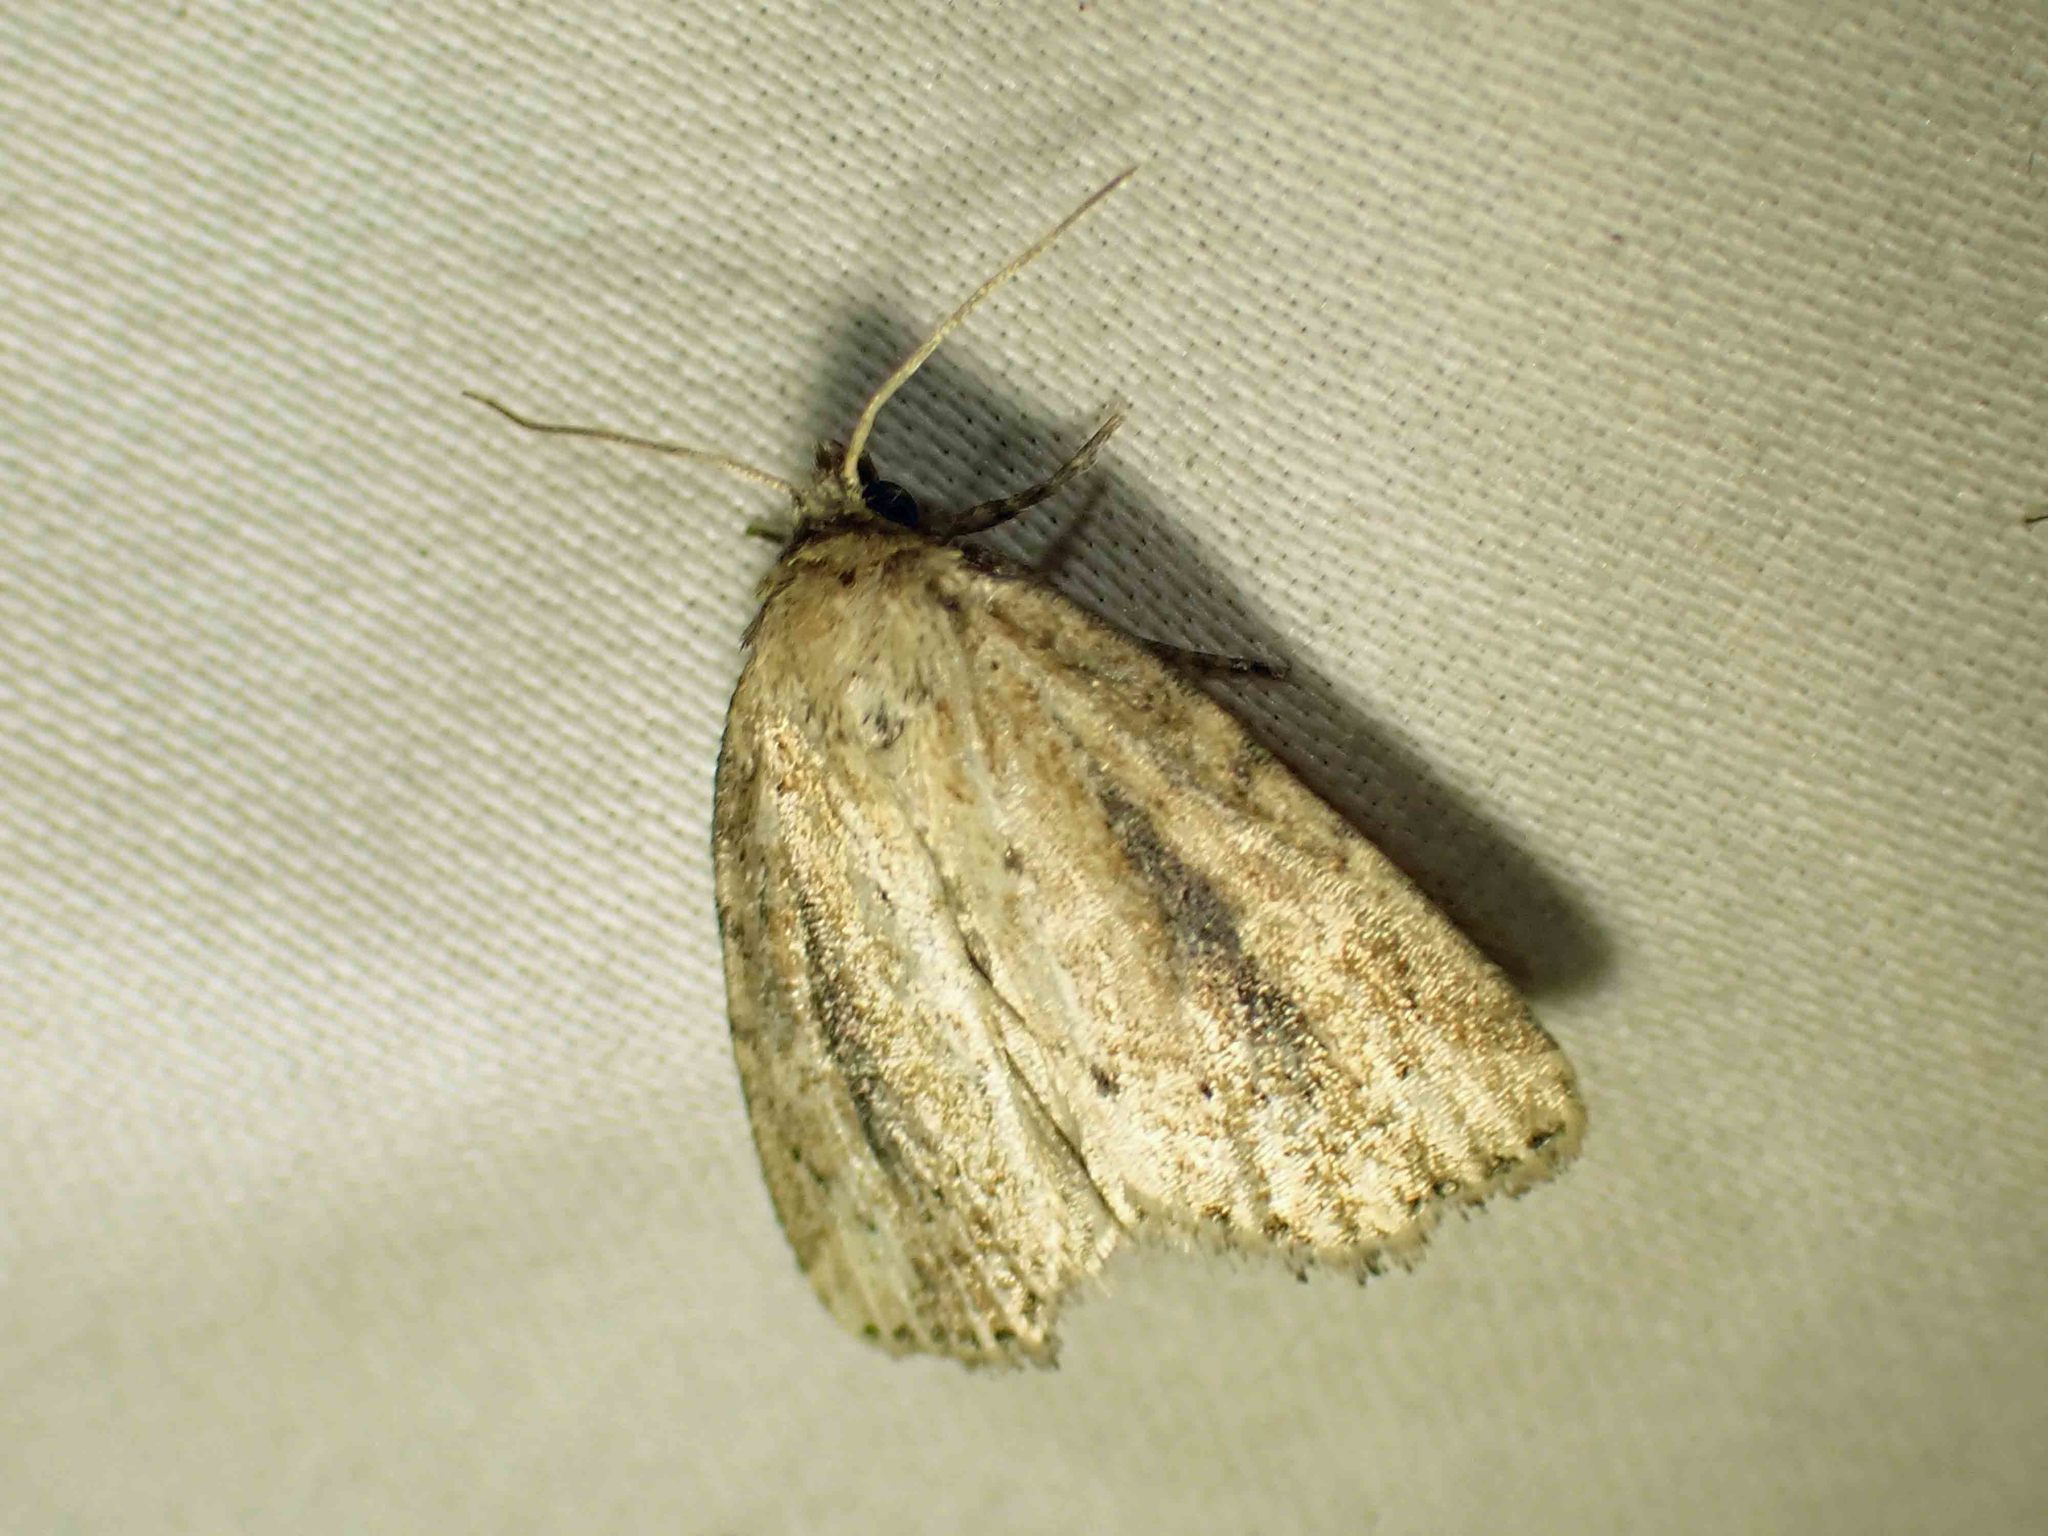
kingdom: Animalia
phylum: Arthropoda
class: Insecta
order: Lepidoptera
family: Noctuidae
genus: Photedes
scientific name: Photedes panatela
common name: Northern cordgrass borer moth
